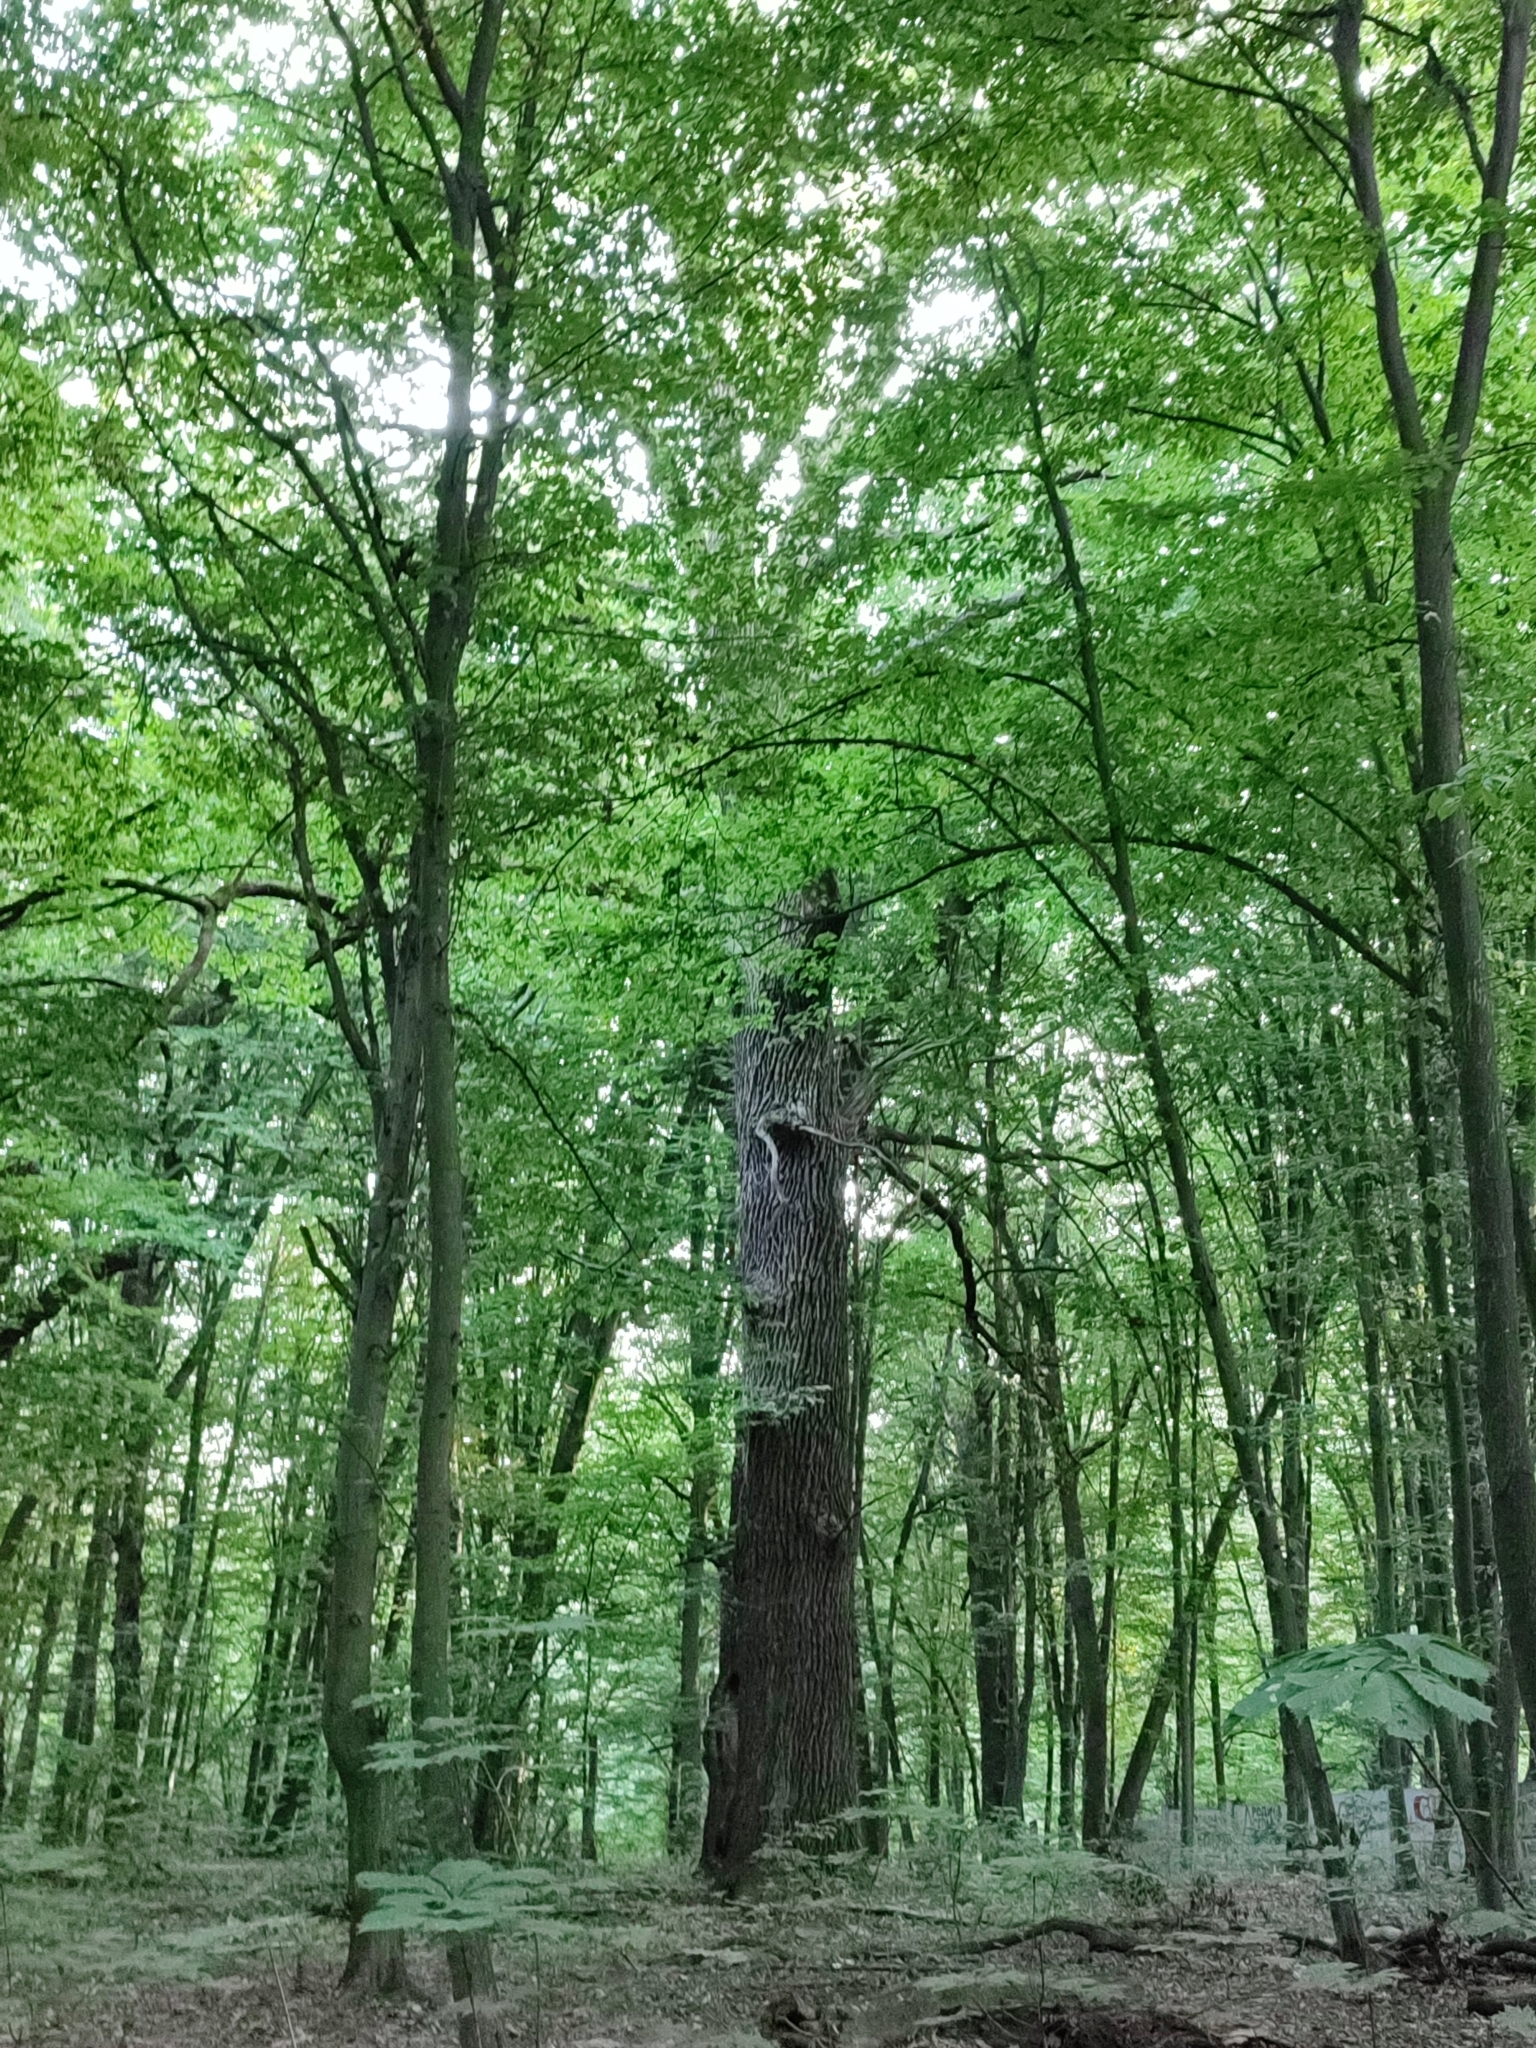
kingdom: Plantae
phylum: Tracheophyta
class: Magnoliopsida
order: Fagales
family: Fagaceae
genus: Quercus
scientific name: Quercus robur
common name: Pedunculate oak
